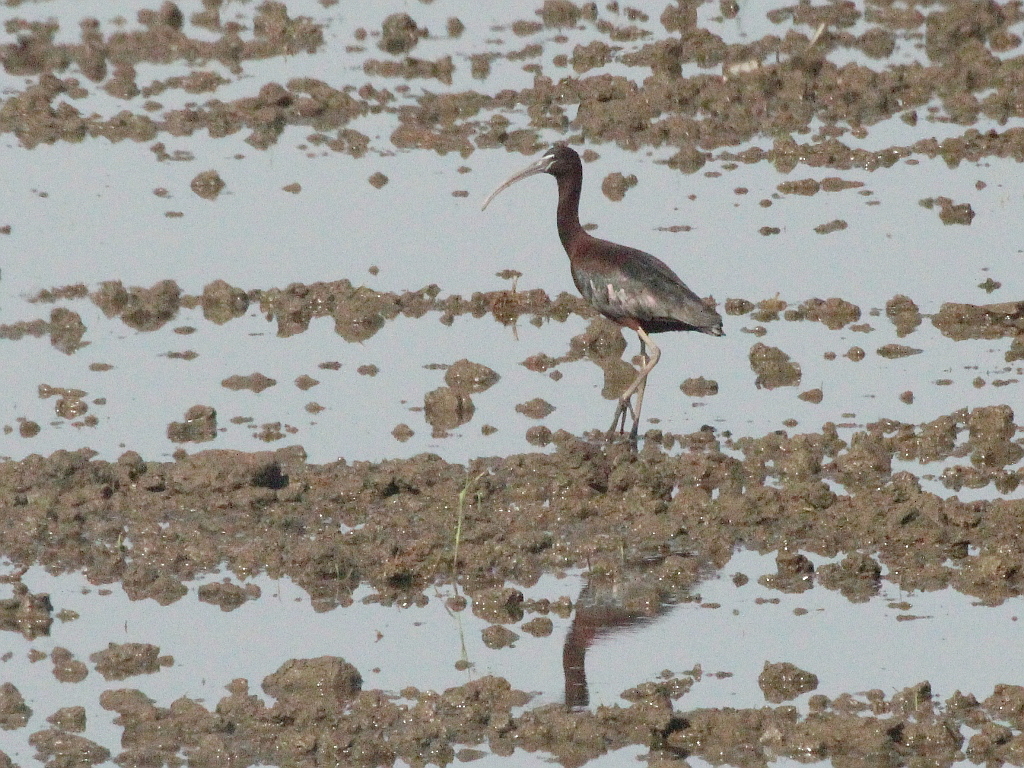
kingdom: Animalia
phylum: Chordata
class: Aves
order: Pelecaniformes
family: Threskiornithidae
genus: Plegadis
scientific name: Plegadis falcinellus
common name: Glossy ibis
